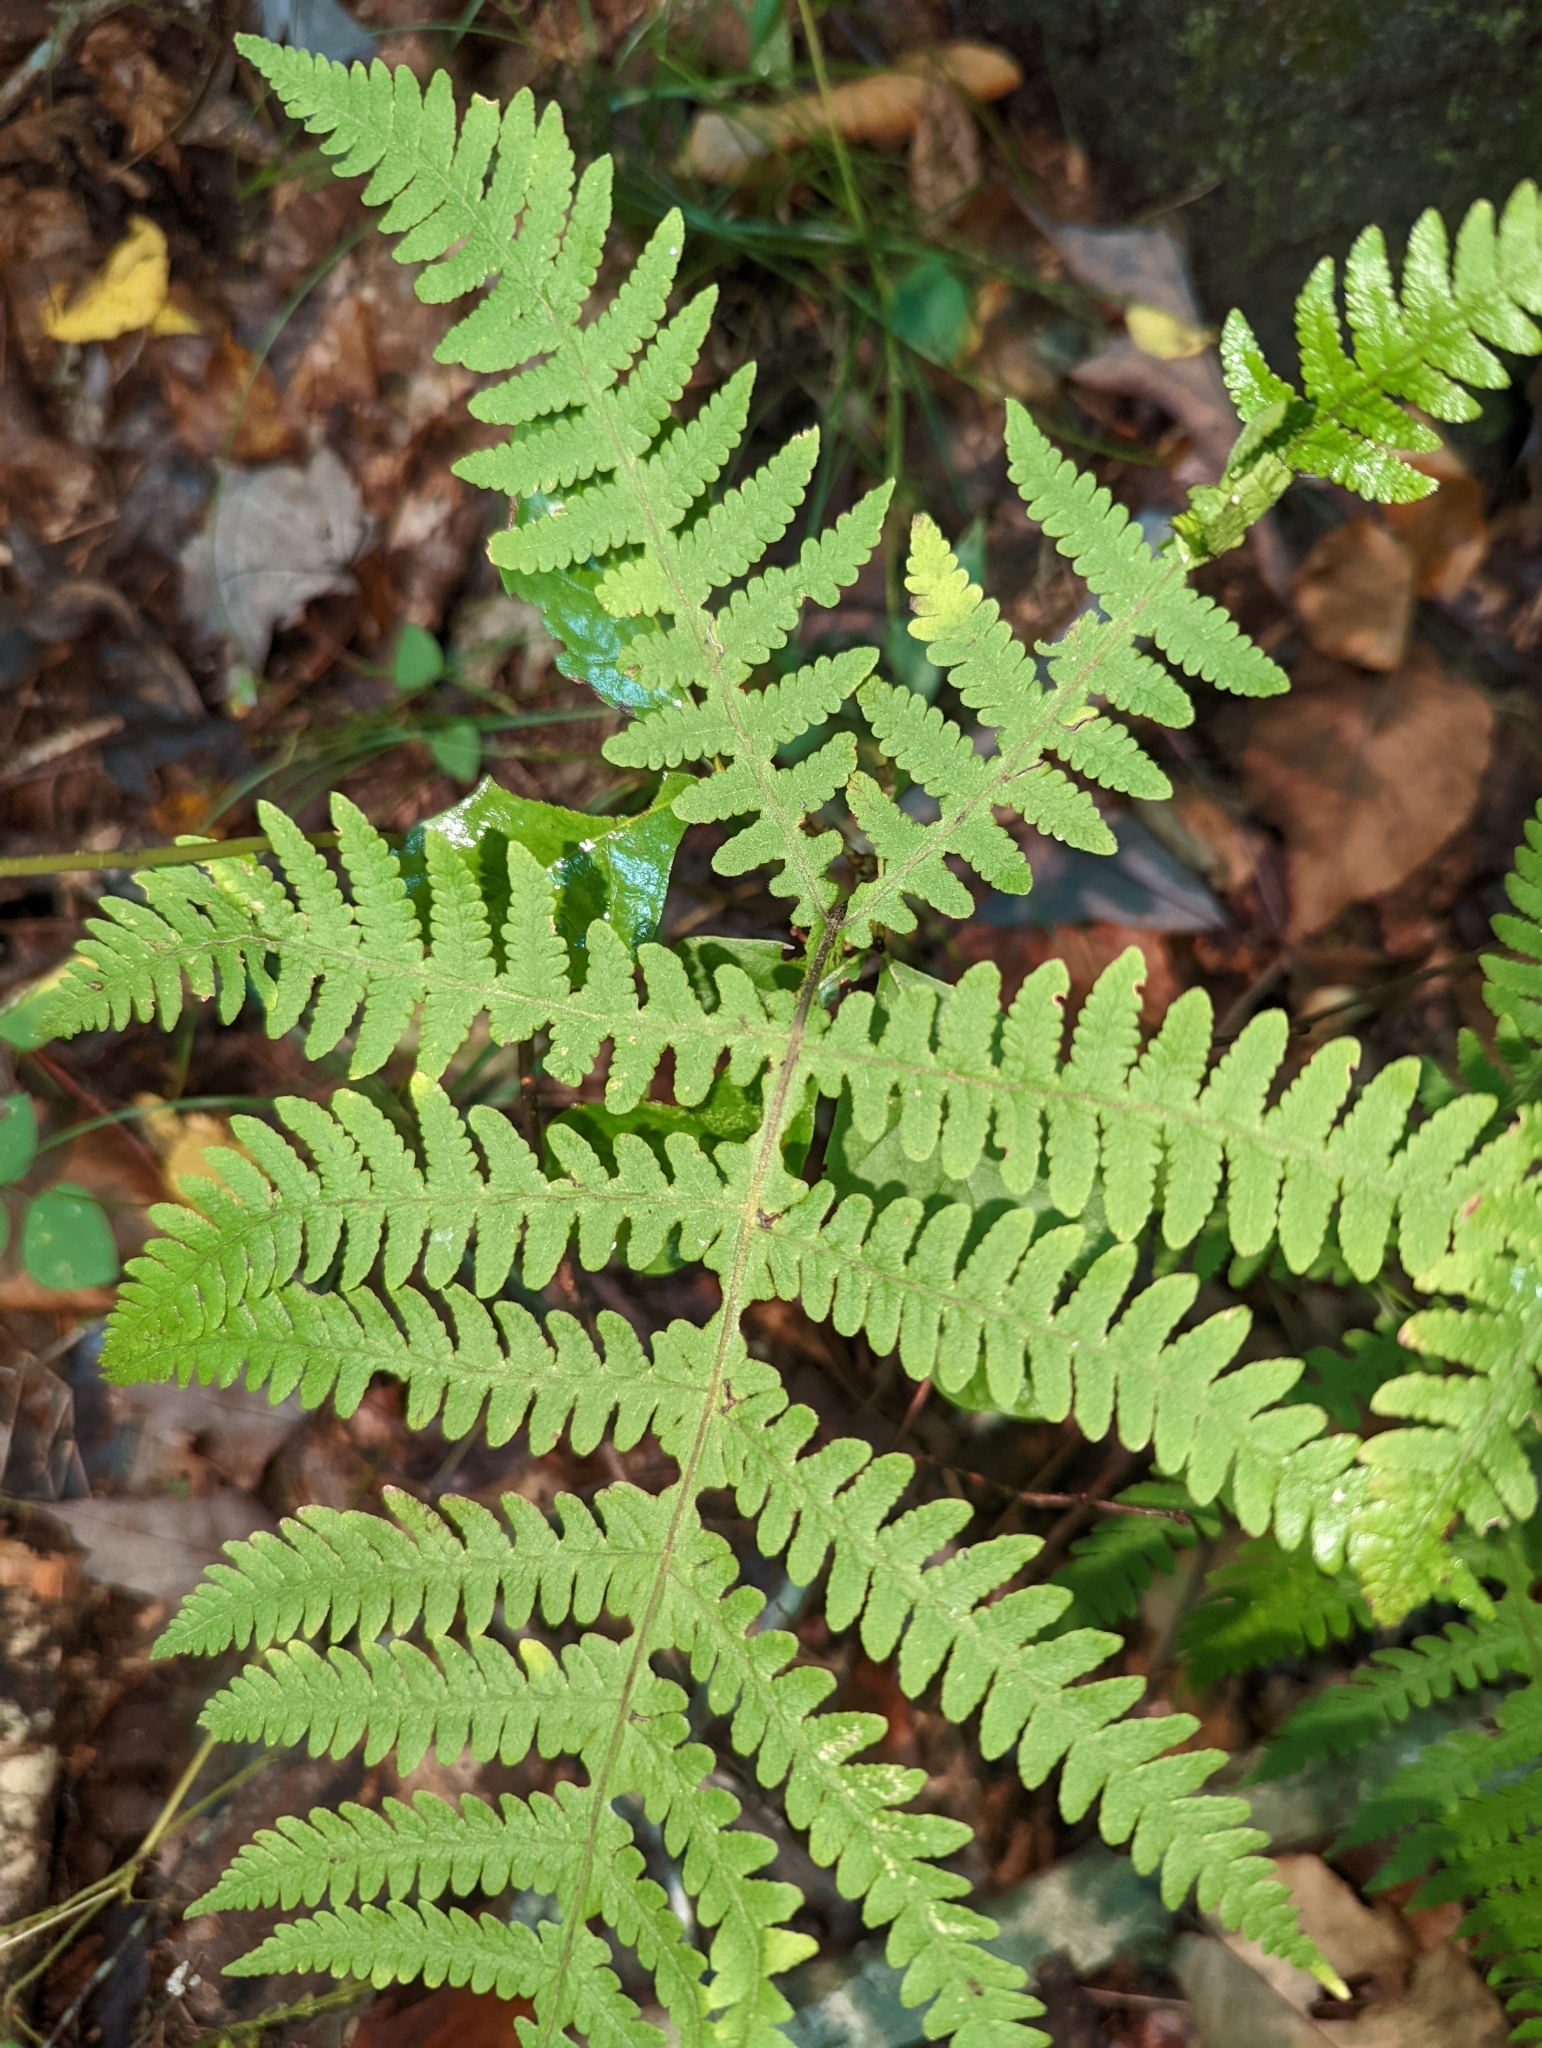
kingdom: Plantae
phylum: Tracheophyta
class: Polypodiopsida
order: Polypodiales
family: Thelypteridaceae
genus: Phegopteris
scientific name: Phegopteris hexagonoptera
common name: Broad beech fern
